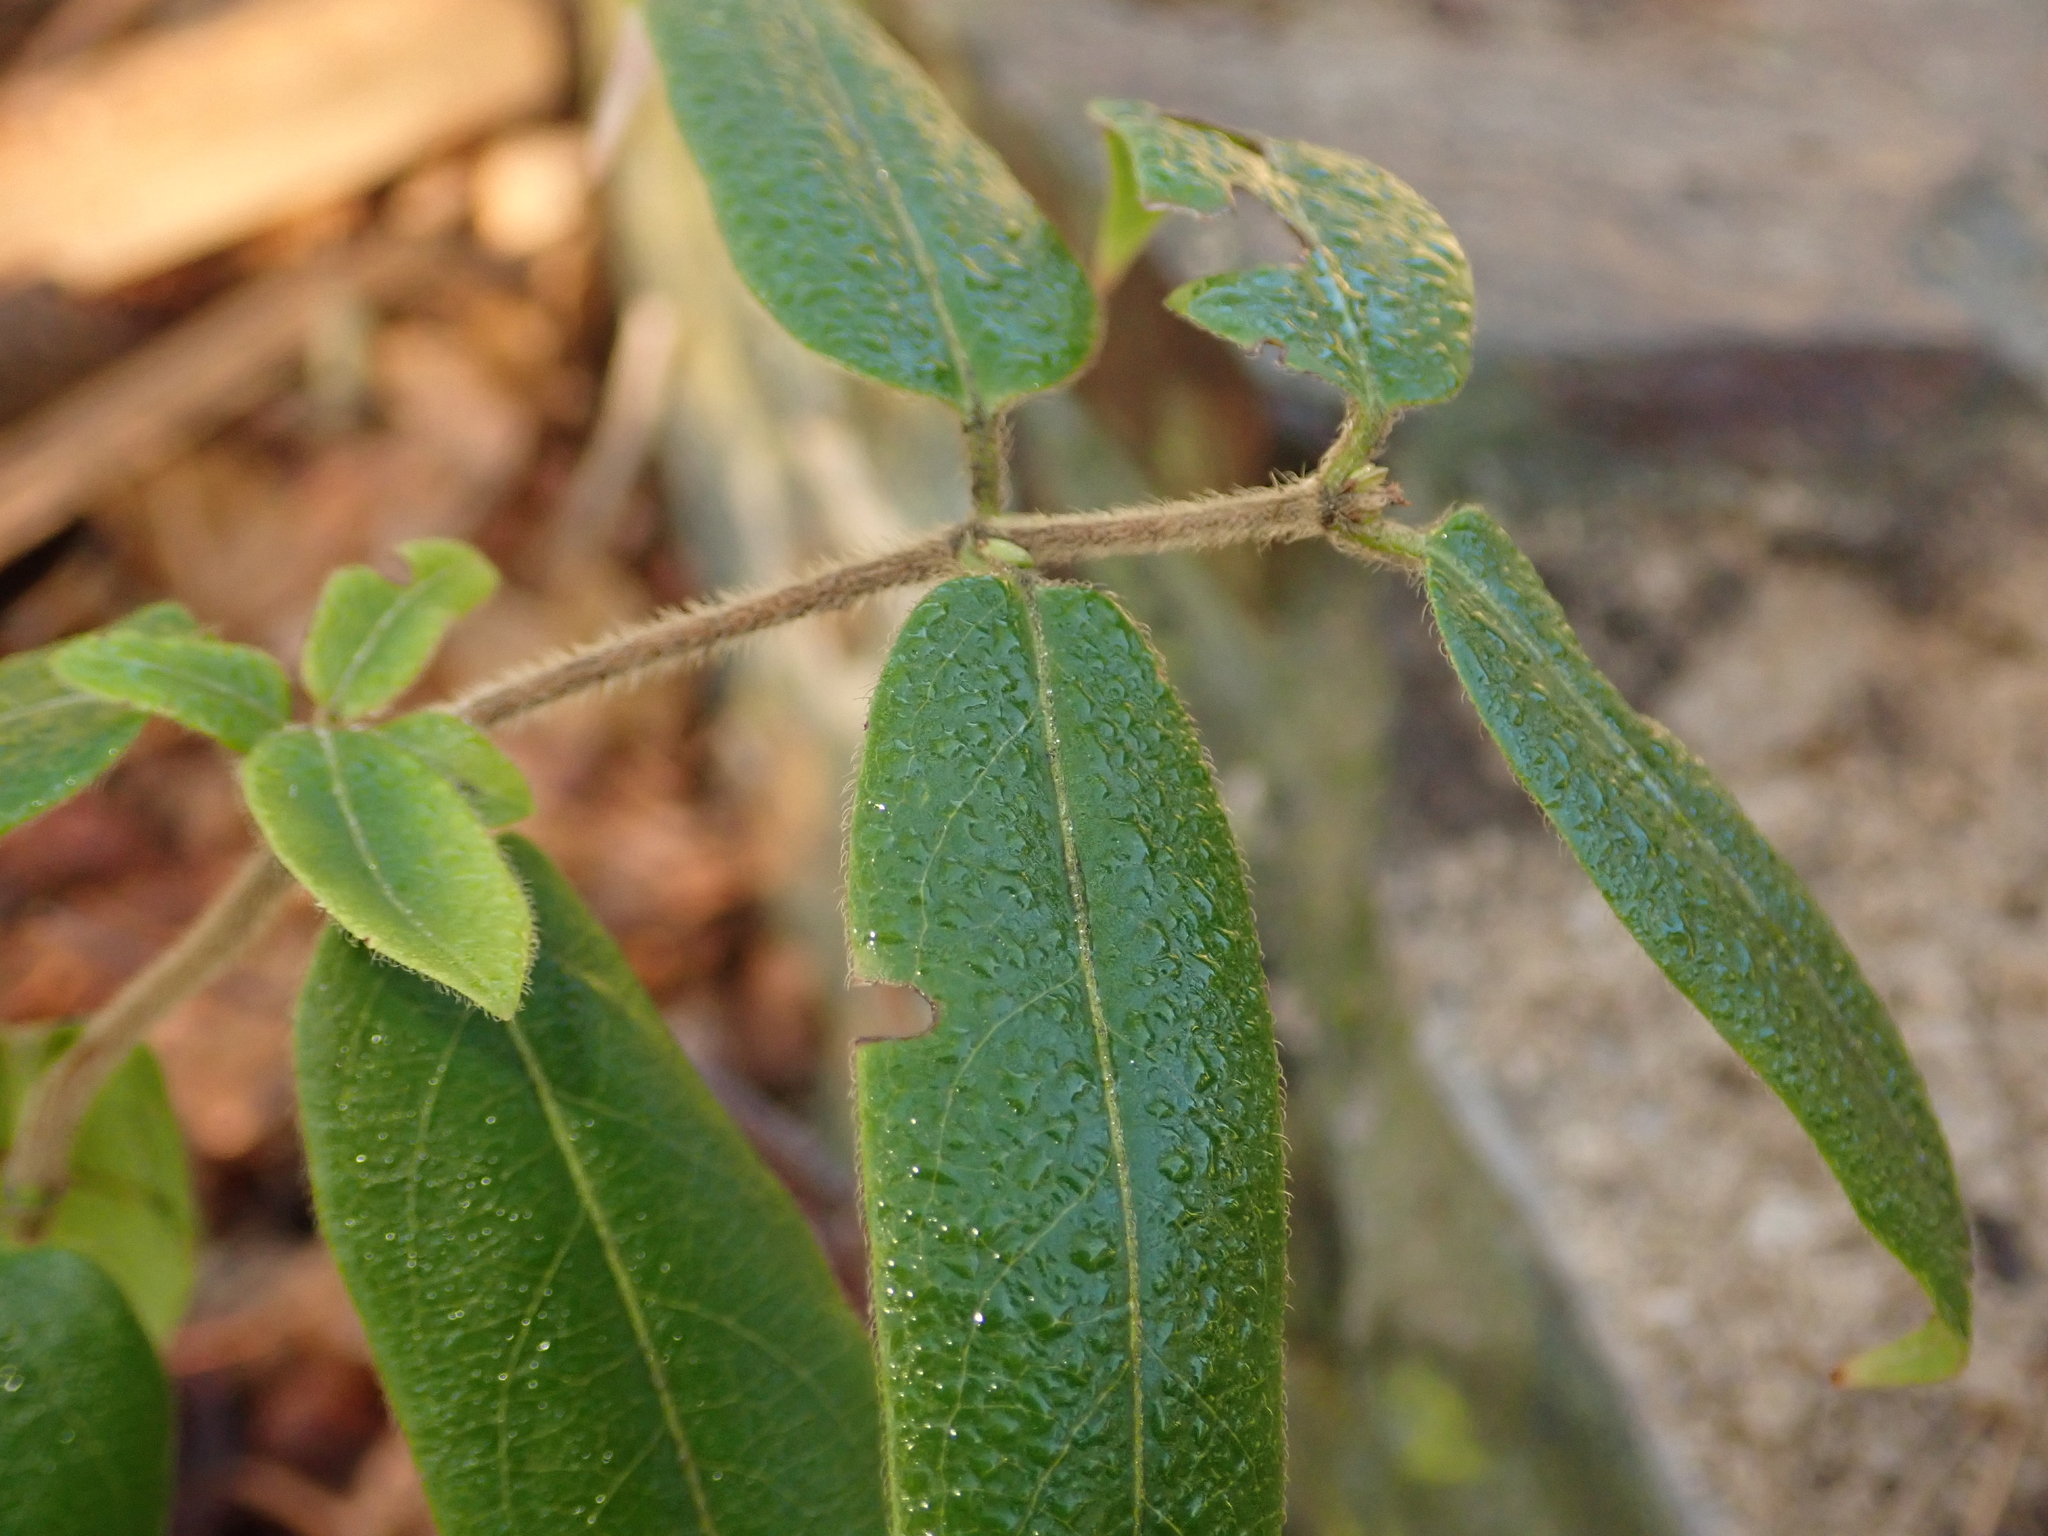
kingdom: Plantae
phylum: Tracheophyta
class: Magnoliopsida
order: Dipsacales
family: Caprifoliaceae
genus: Lonicera
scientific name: Lonicera acuminata
